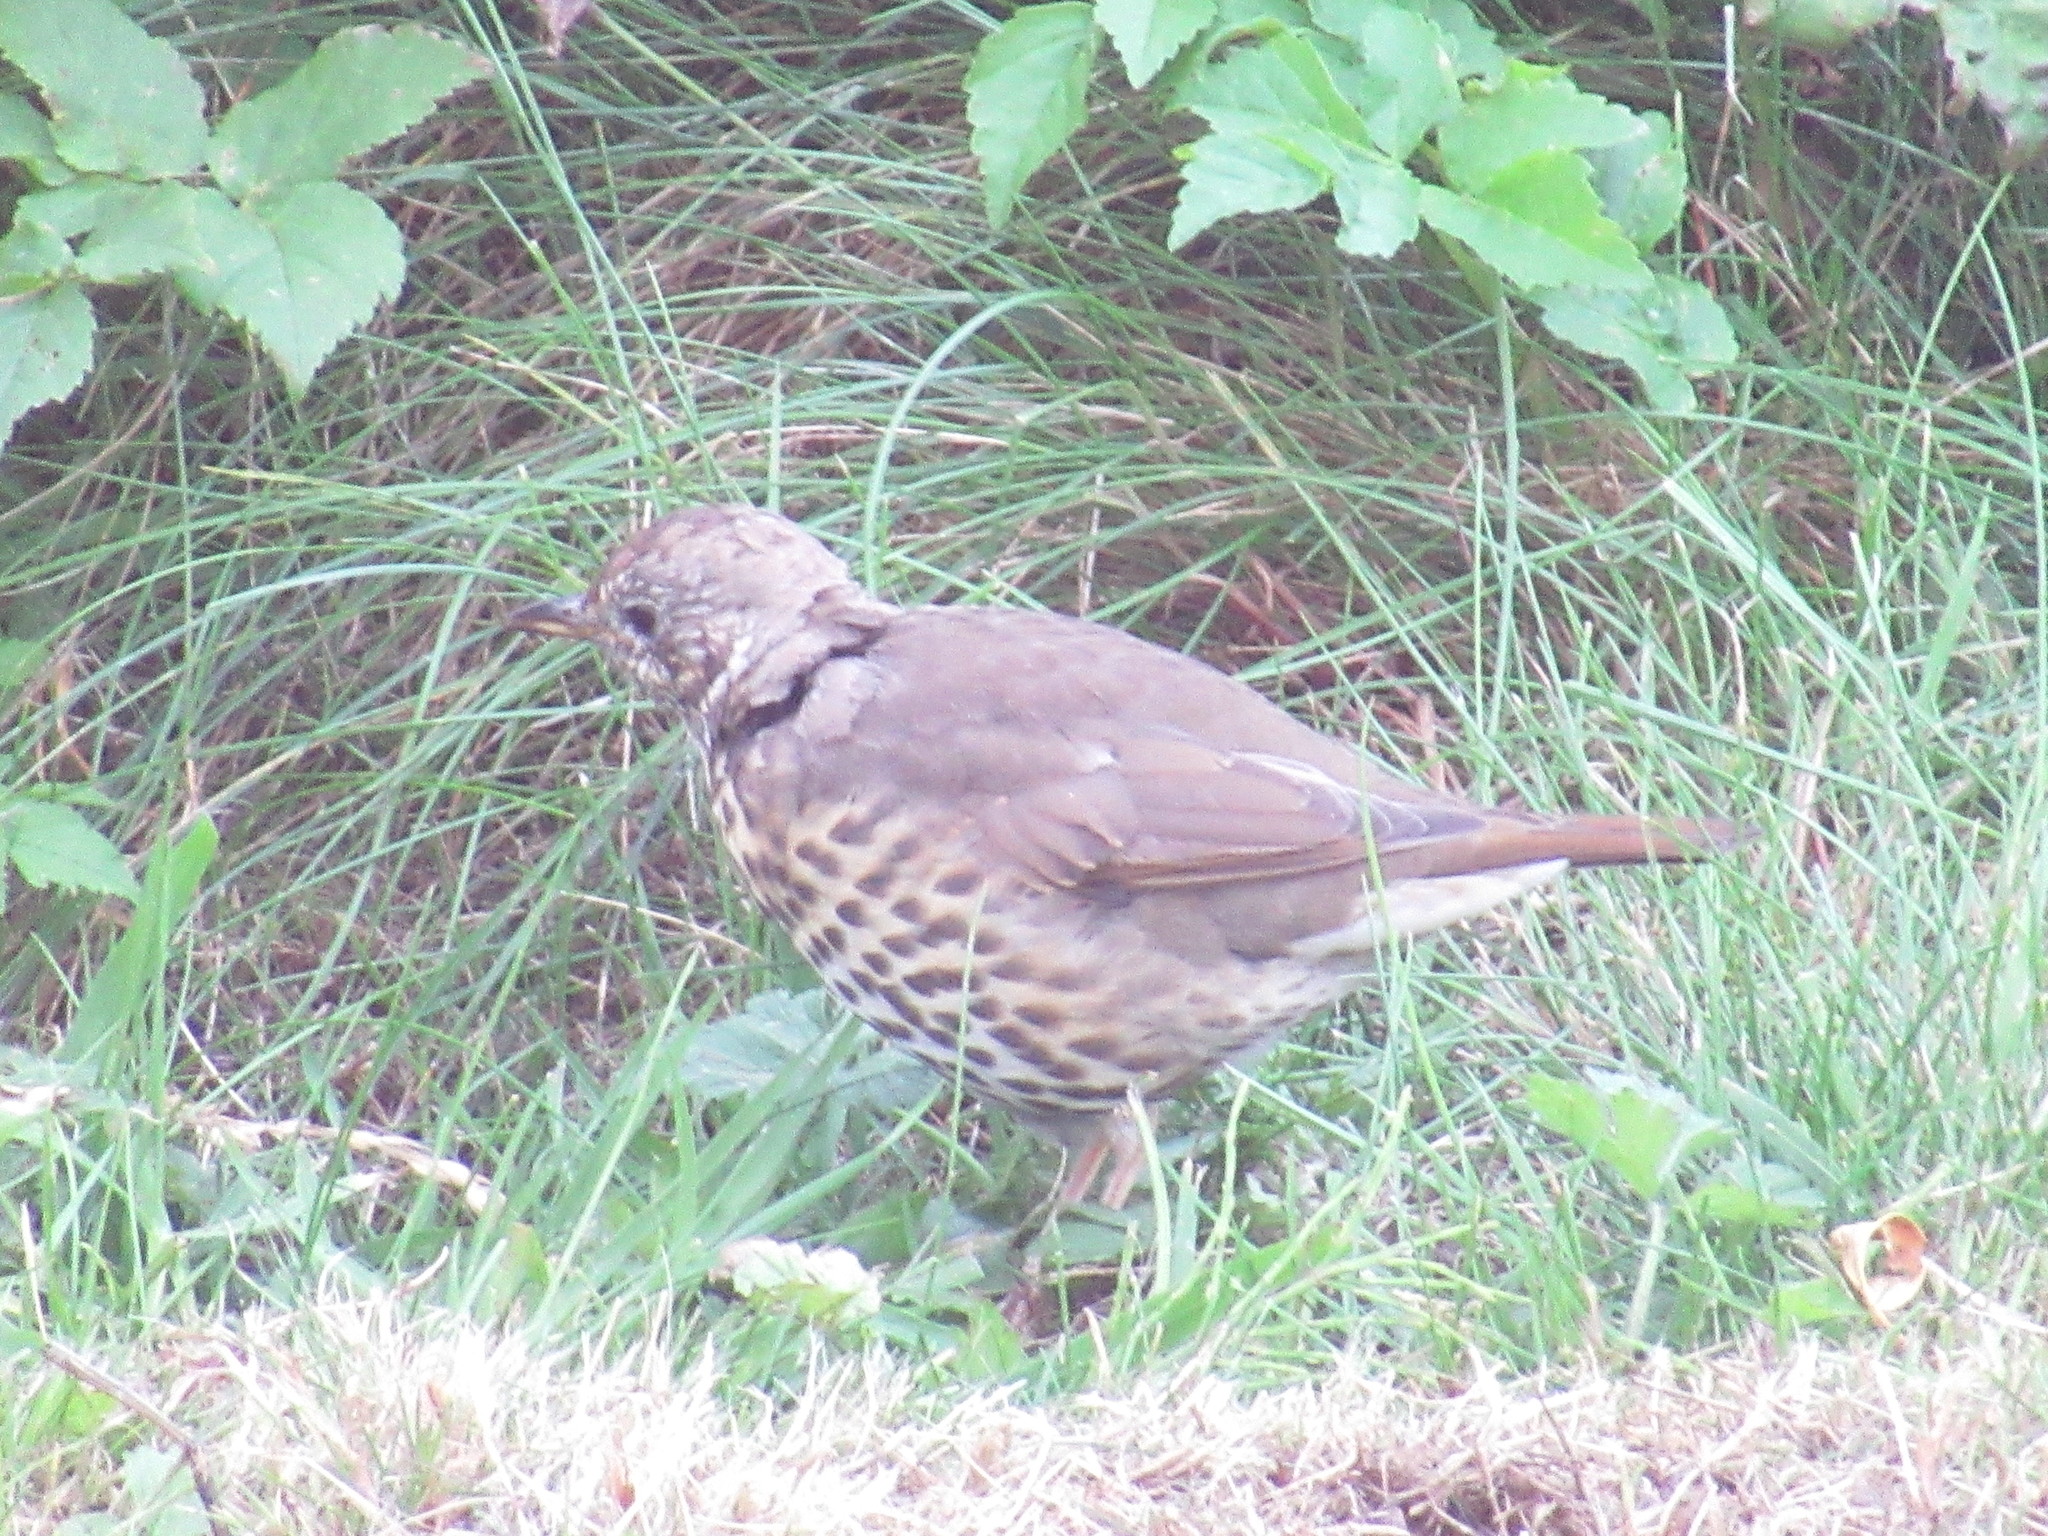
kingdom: Animalia
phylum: Chordata
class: Aves
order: Passeriformes
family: Turdidae
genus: Turdus
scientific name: Turdus philomelos
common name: Song thrush
